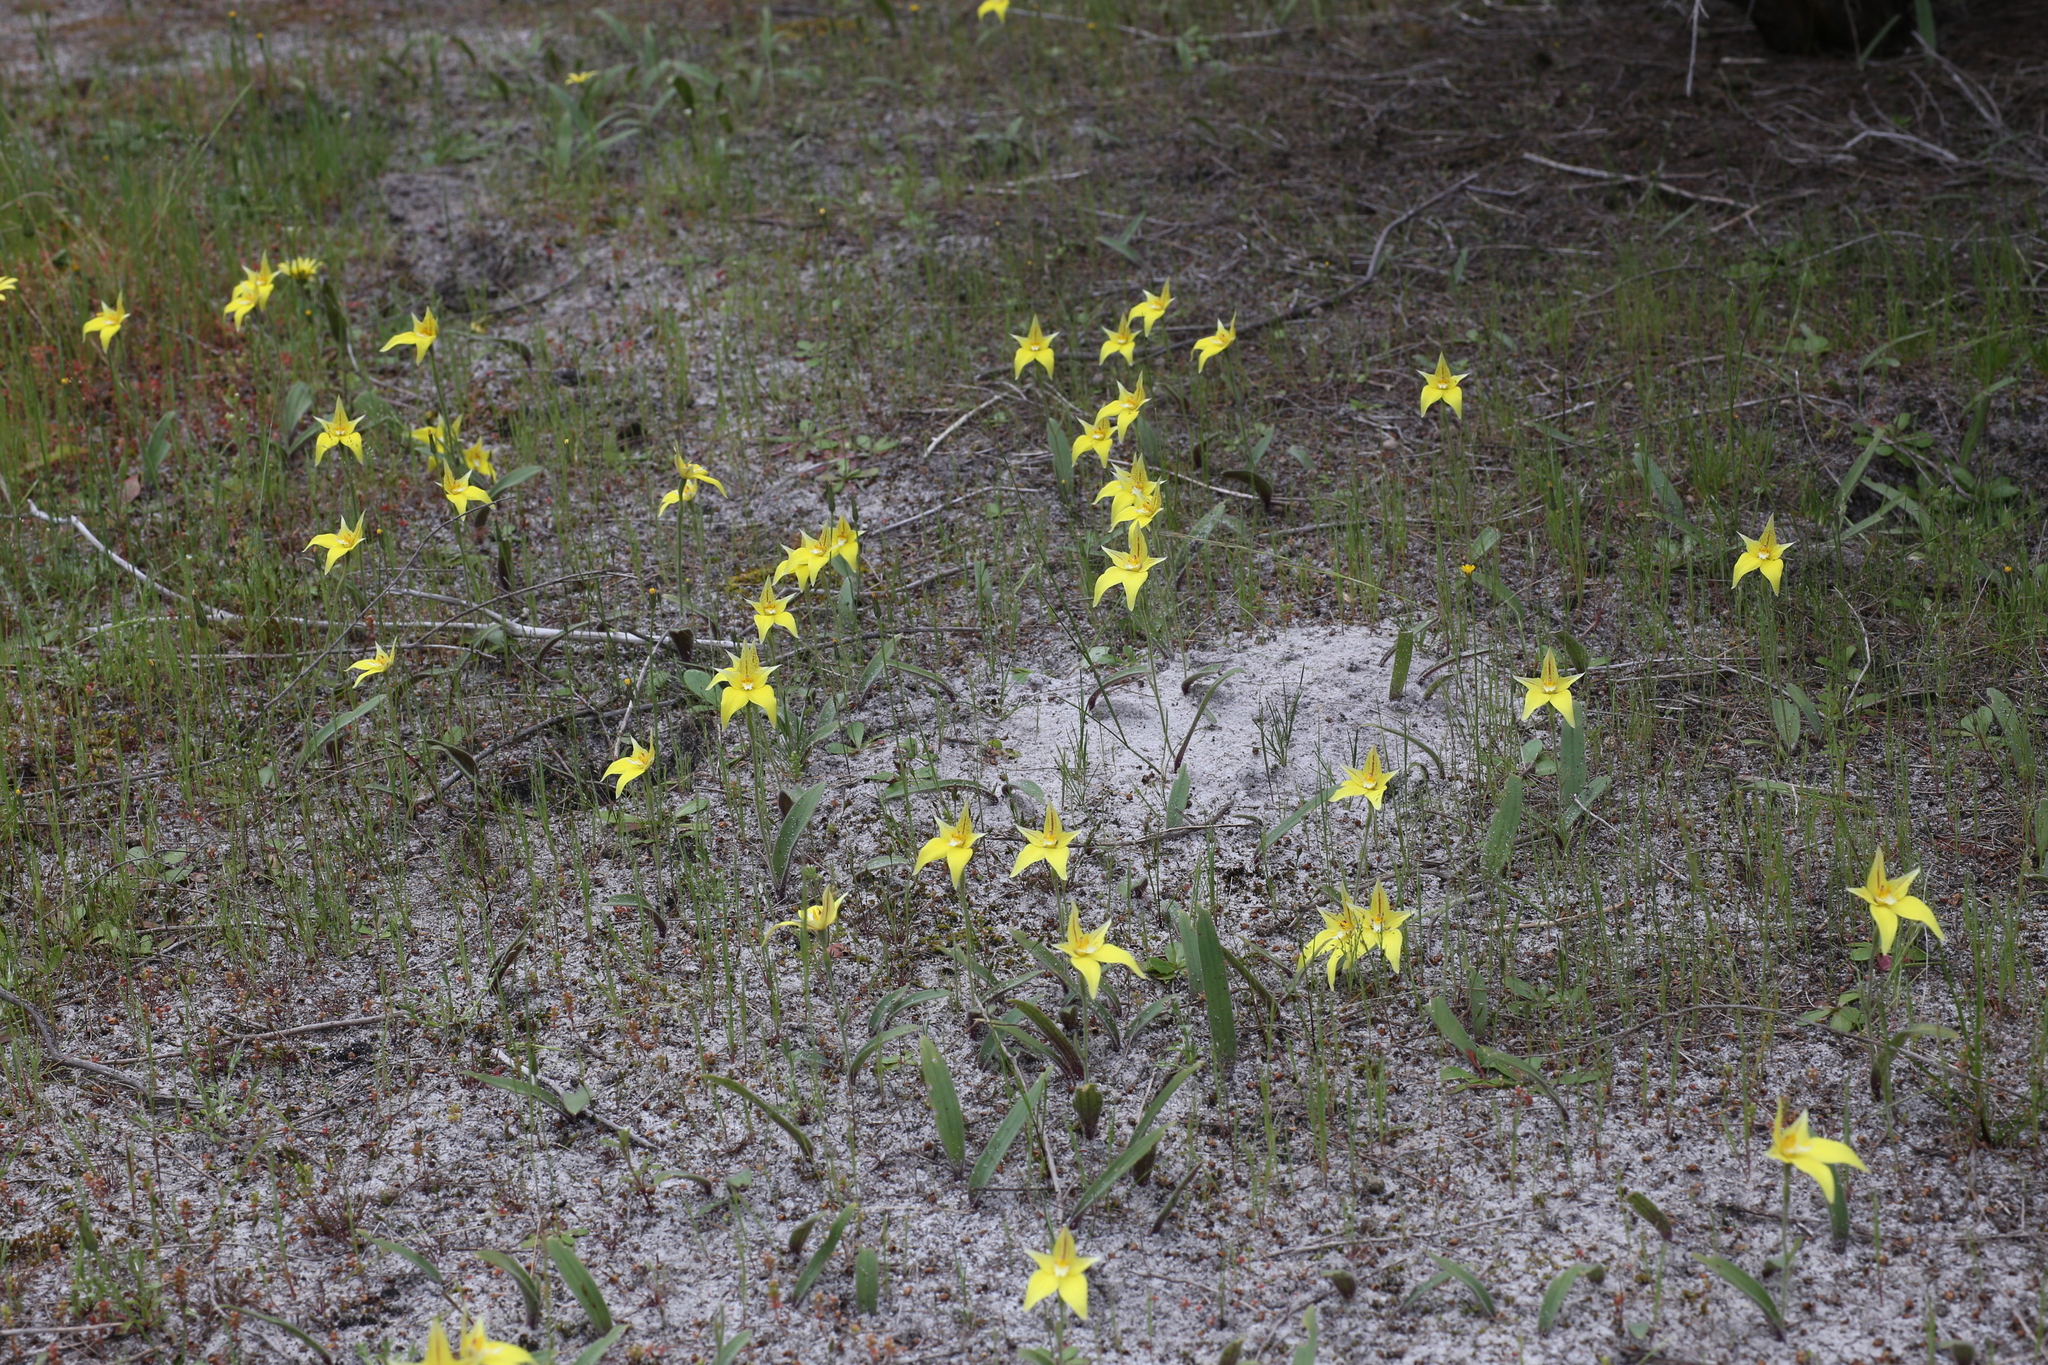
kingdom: Plantae
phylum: Tracheophyta
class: Liliopsida
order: Asparagales
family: Orchidaceae
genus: Caladenia
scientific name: Caladenia flava
